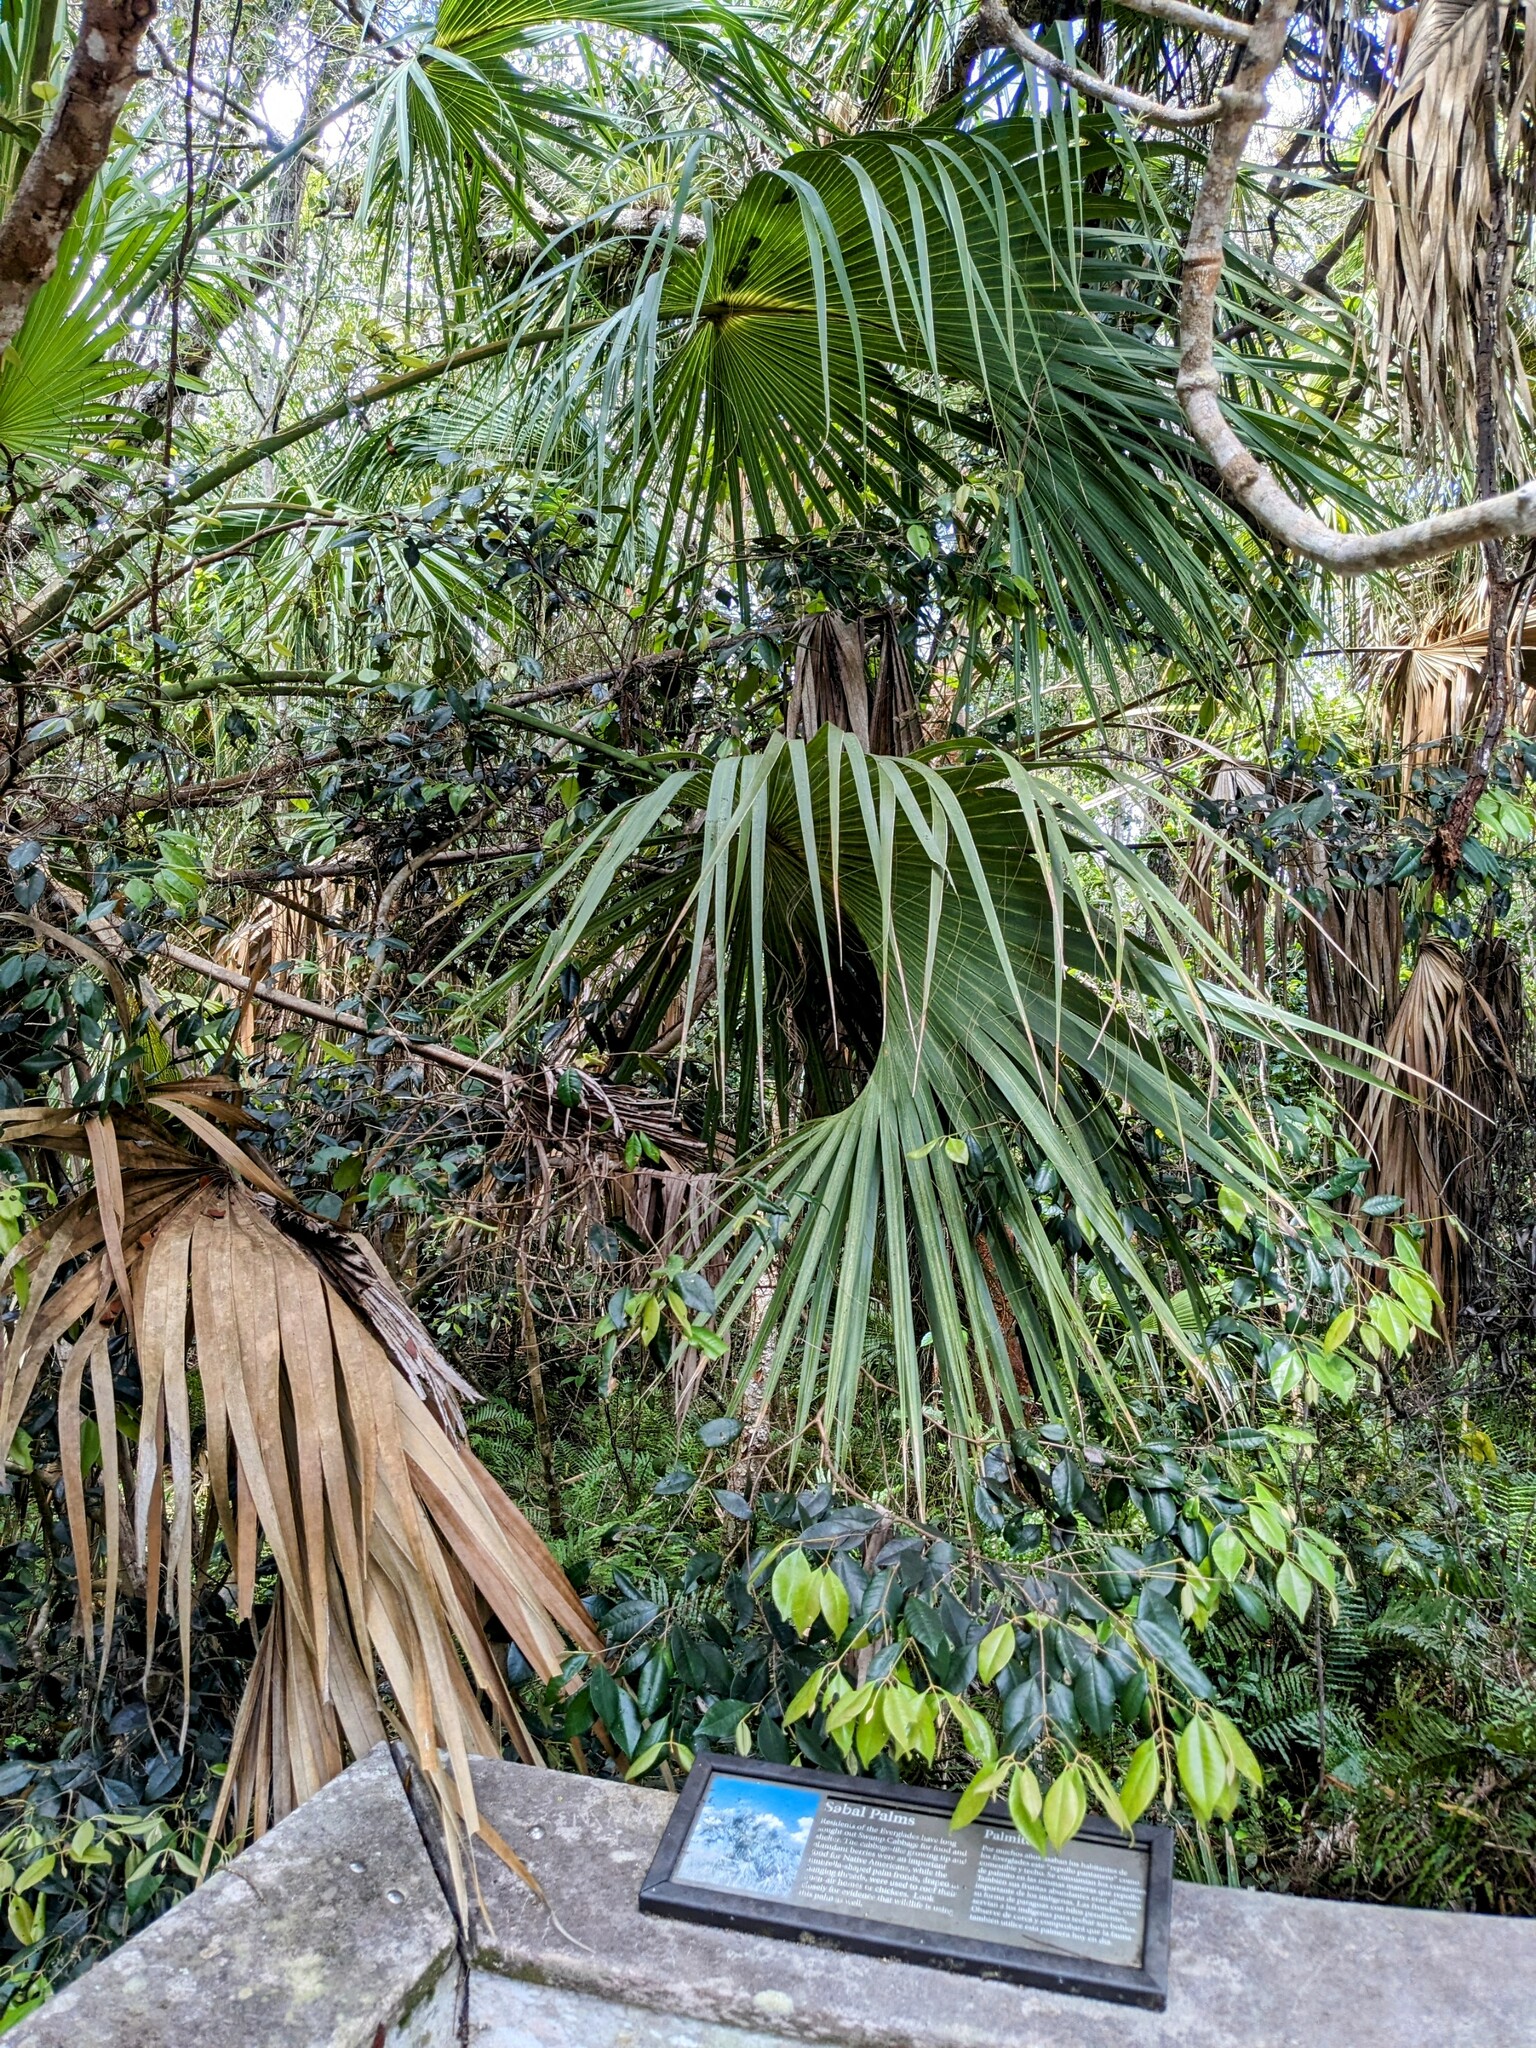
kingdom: Plantae
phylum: Tracheophyta
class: Liliopsida
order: Arecales
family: Arecaceae
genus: Sabal
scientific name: Sabal palmetto
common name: Blue palmetto
